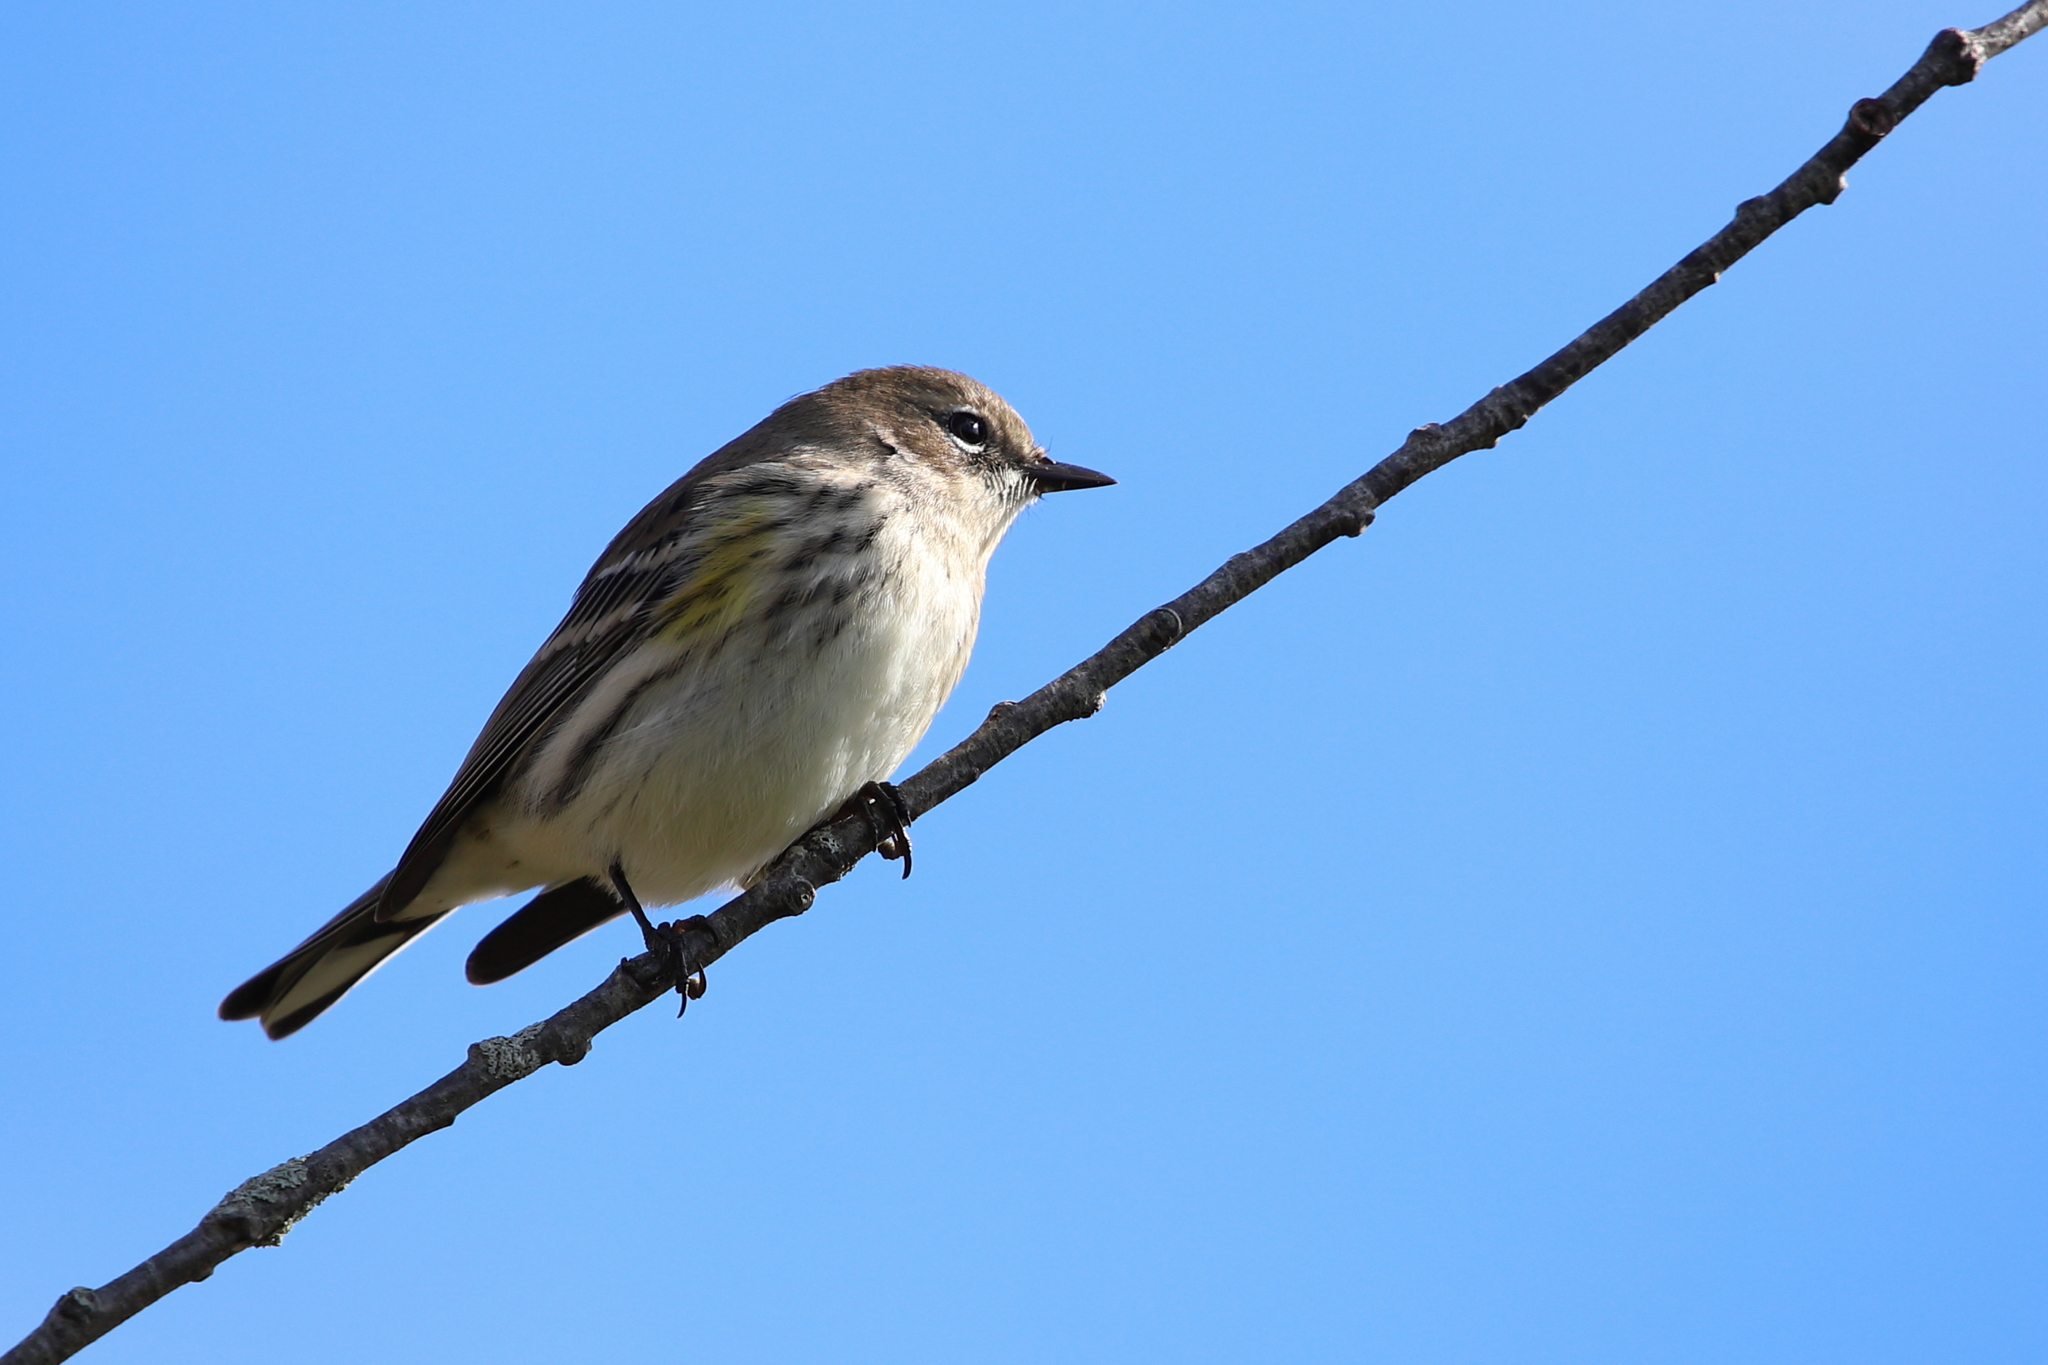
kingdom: Animalia
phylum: Chordata
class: Aves
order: Passeriformes
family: Parulidae
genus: Setophaga
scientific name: Setophaga coronata
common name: Myrtle warbler
